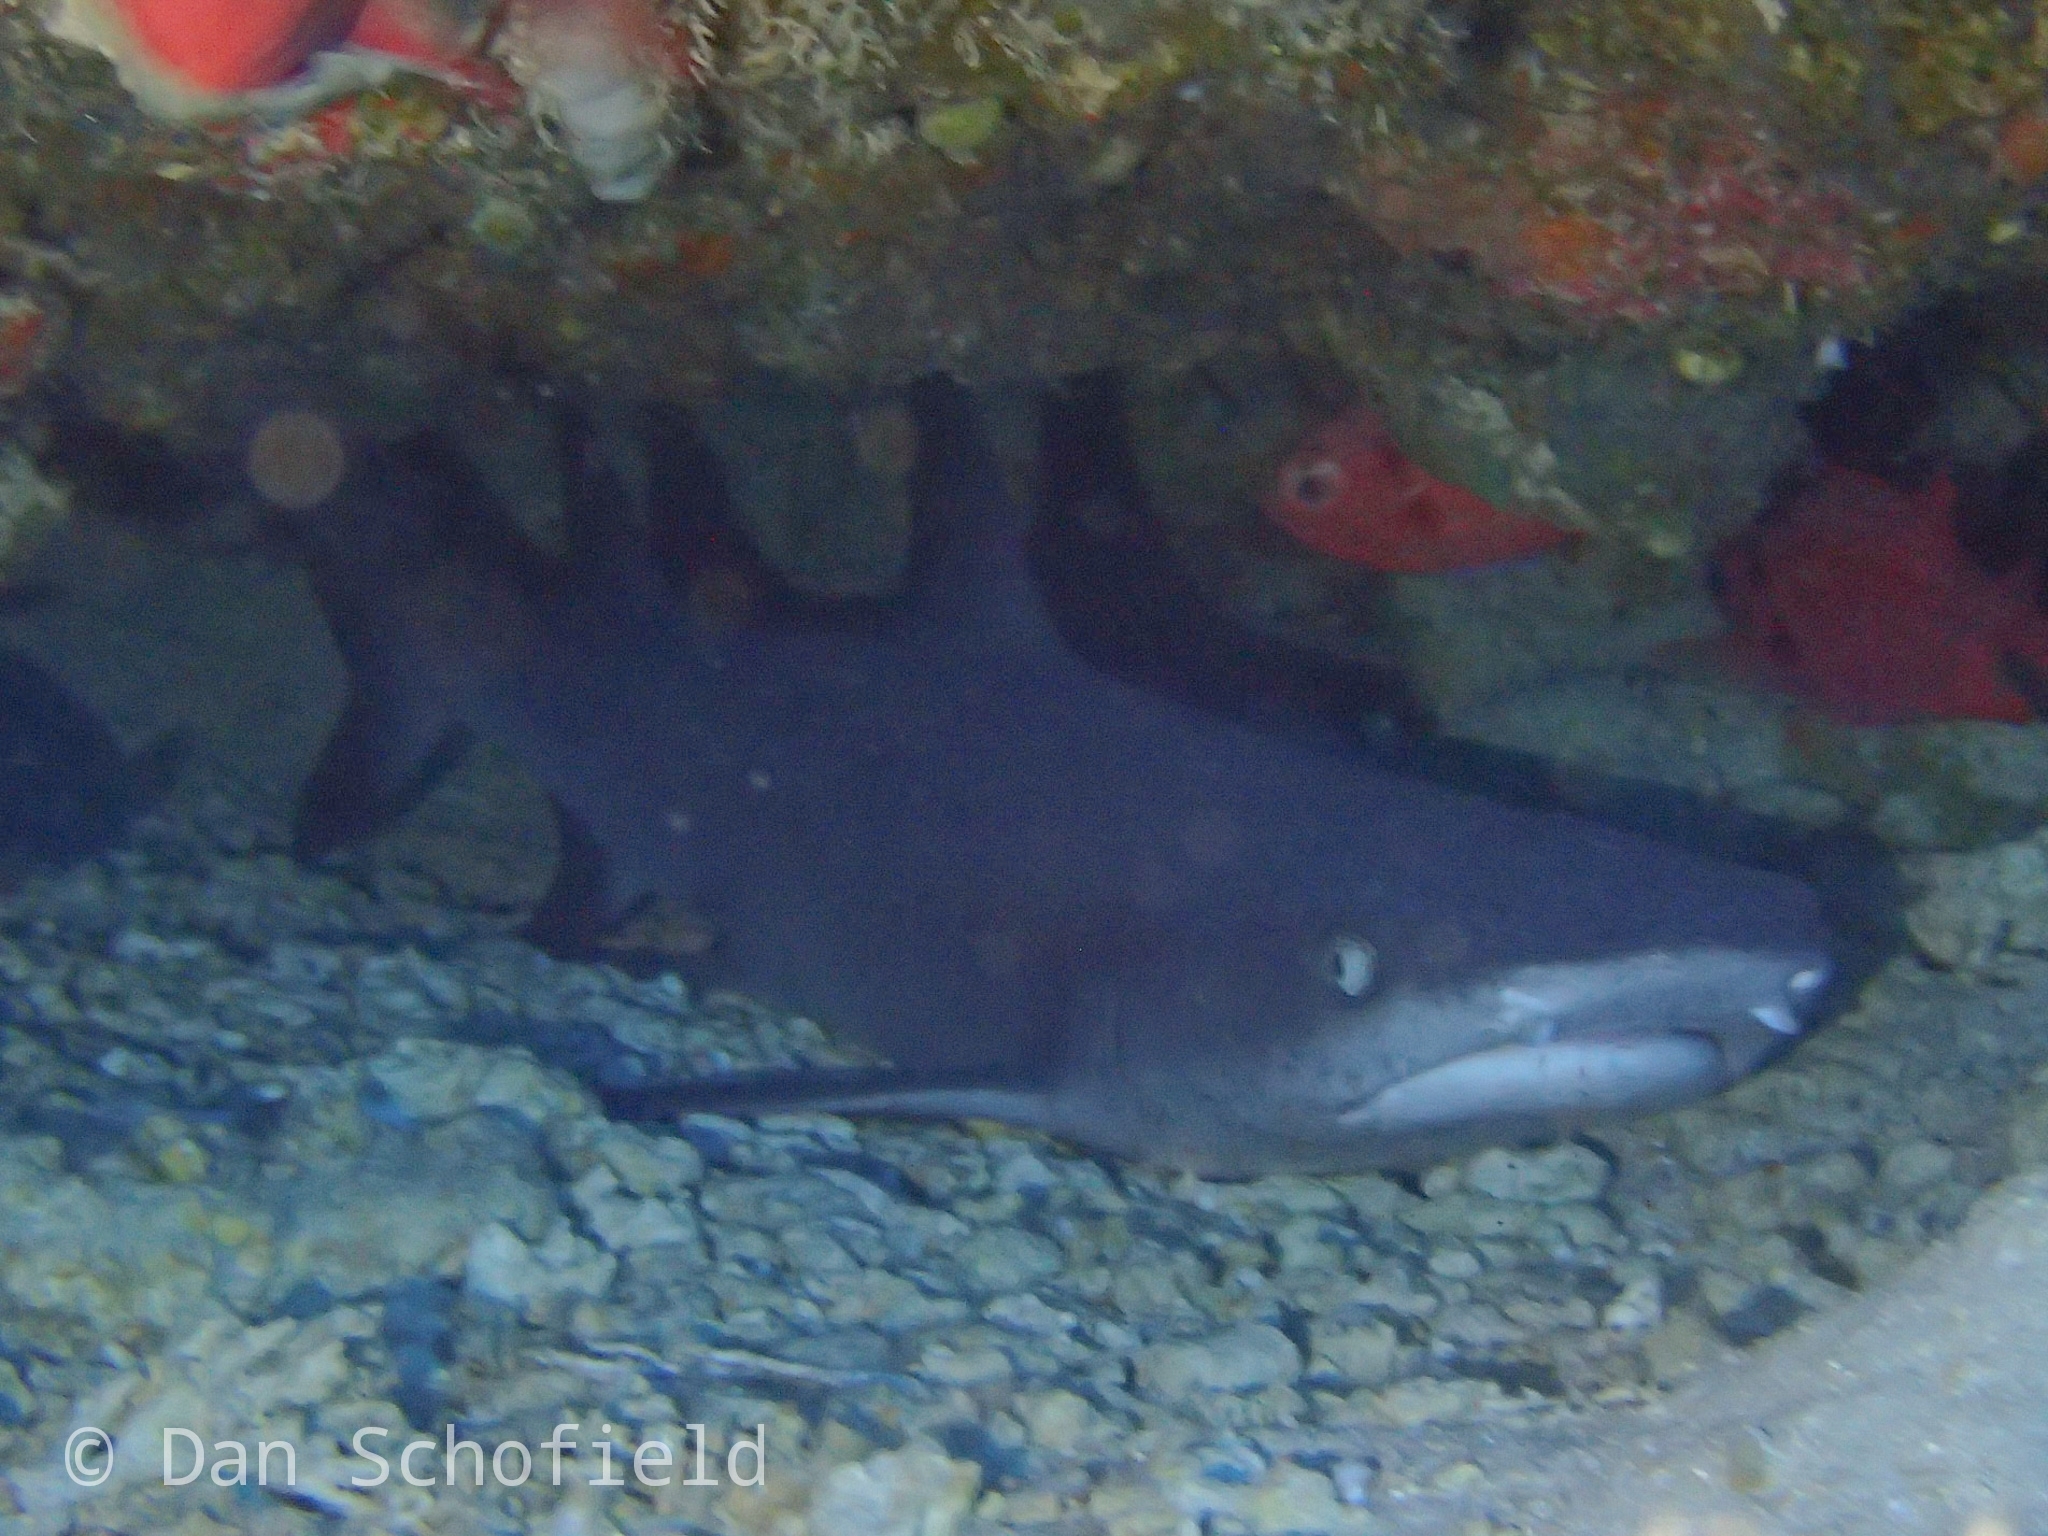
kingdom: Animalia
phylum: Chordata
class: Elasmobranchii
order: Carcharhiniformes
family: Carcharhinidae
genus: Triaenodon
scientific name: Triaenodon obesus
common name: Whitetip reef shark
